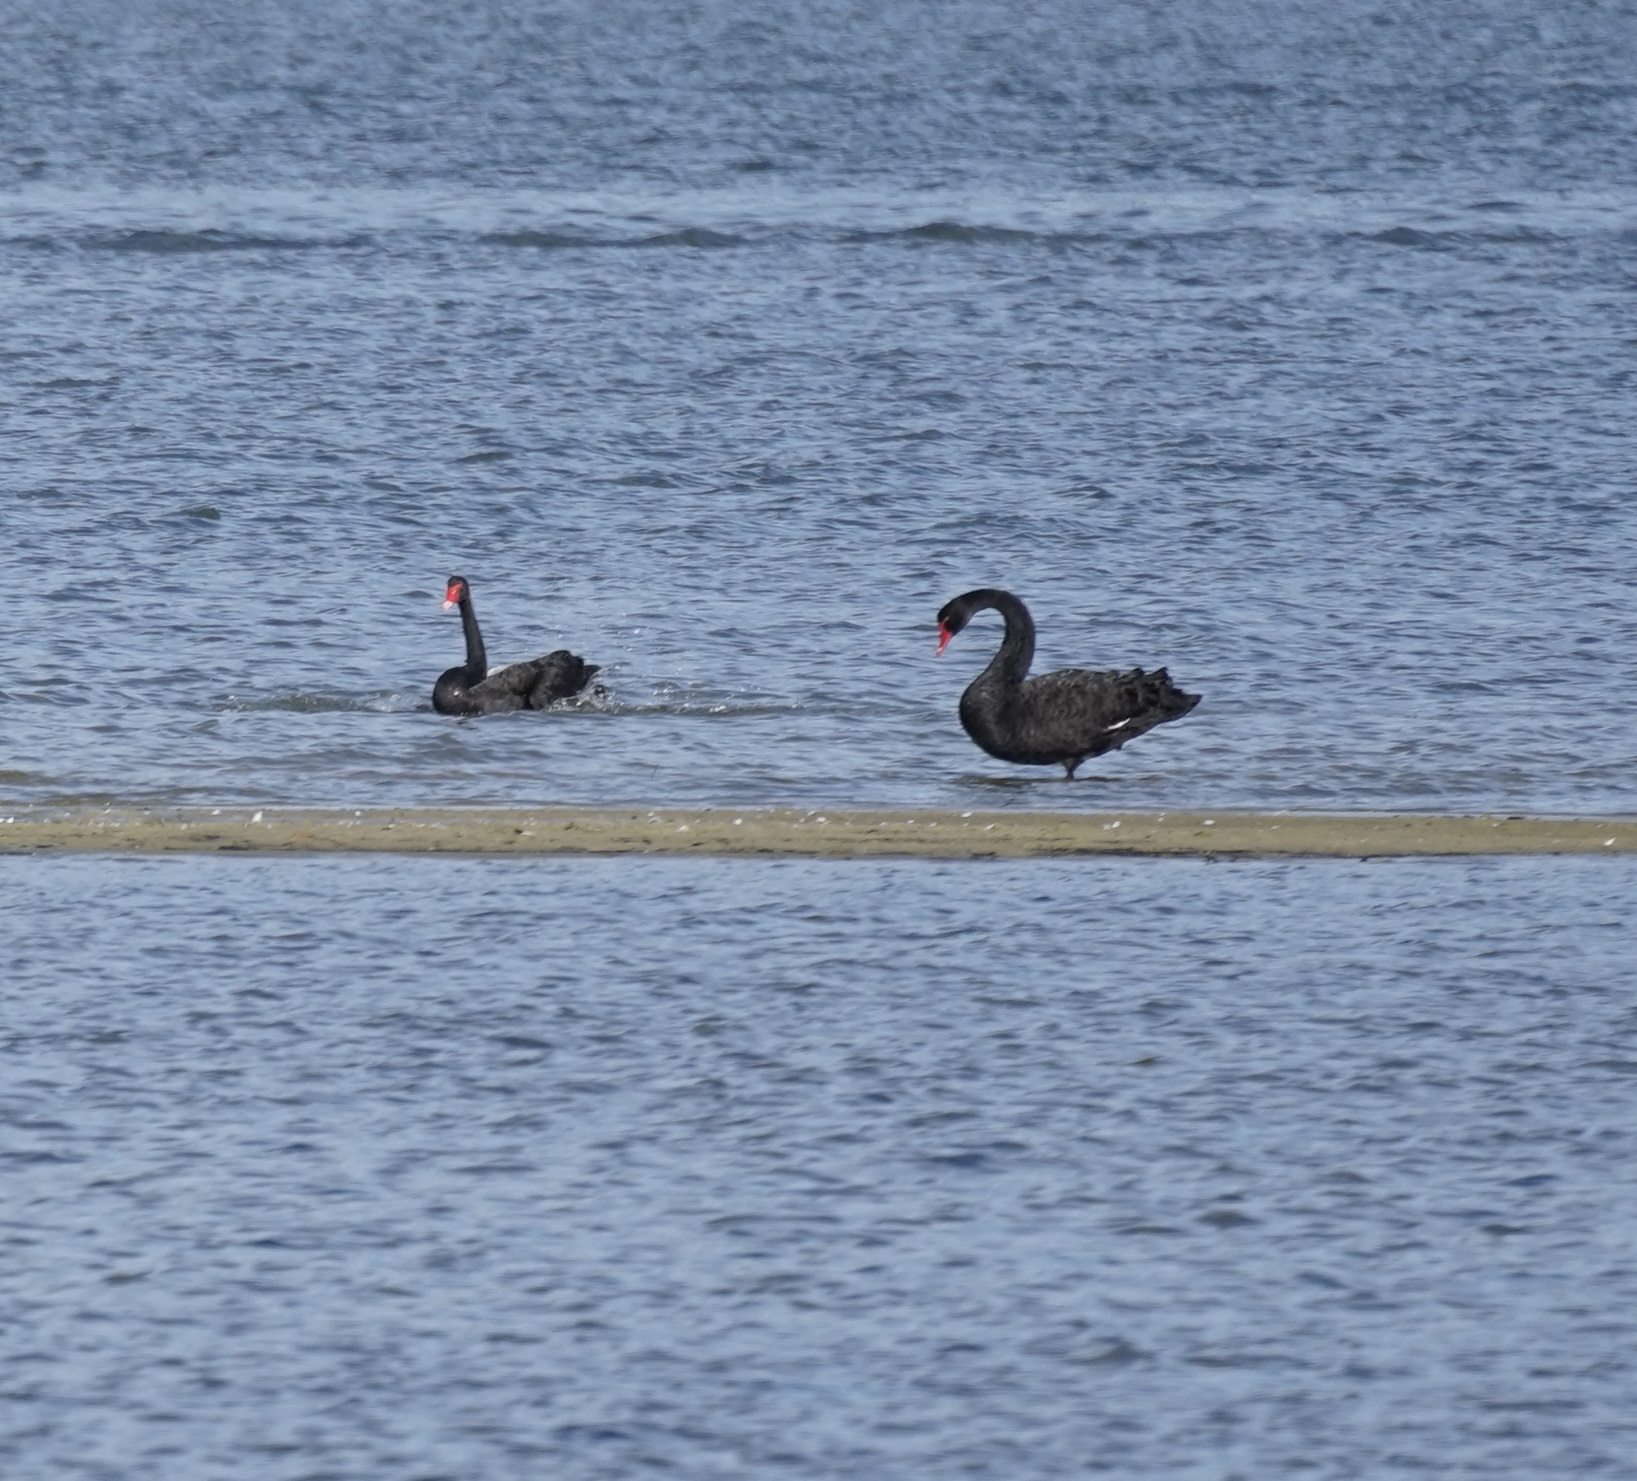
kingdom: Animalia
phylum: Chordata
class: Aves
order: Anseriformes
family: Anatidae
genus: Cygnus
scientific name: Cygnus atratus
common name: Black swan
